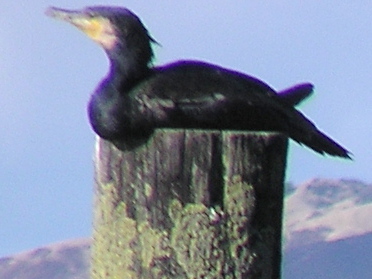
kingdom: Animalia
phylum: Chordata
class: Aves
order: Suliformes
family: Phalacrocoracidae
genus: Phalacrocorax
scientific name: Phalacrocorax carbo
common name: Great cormorant
